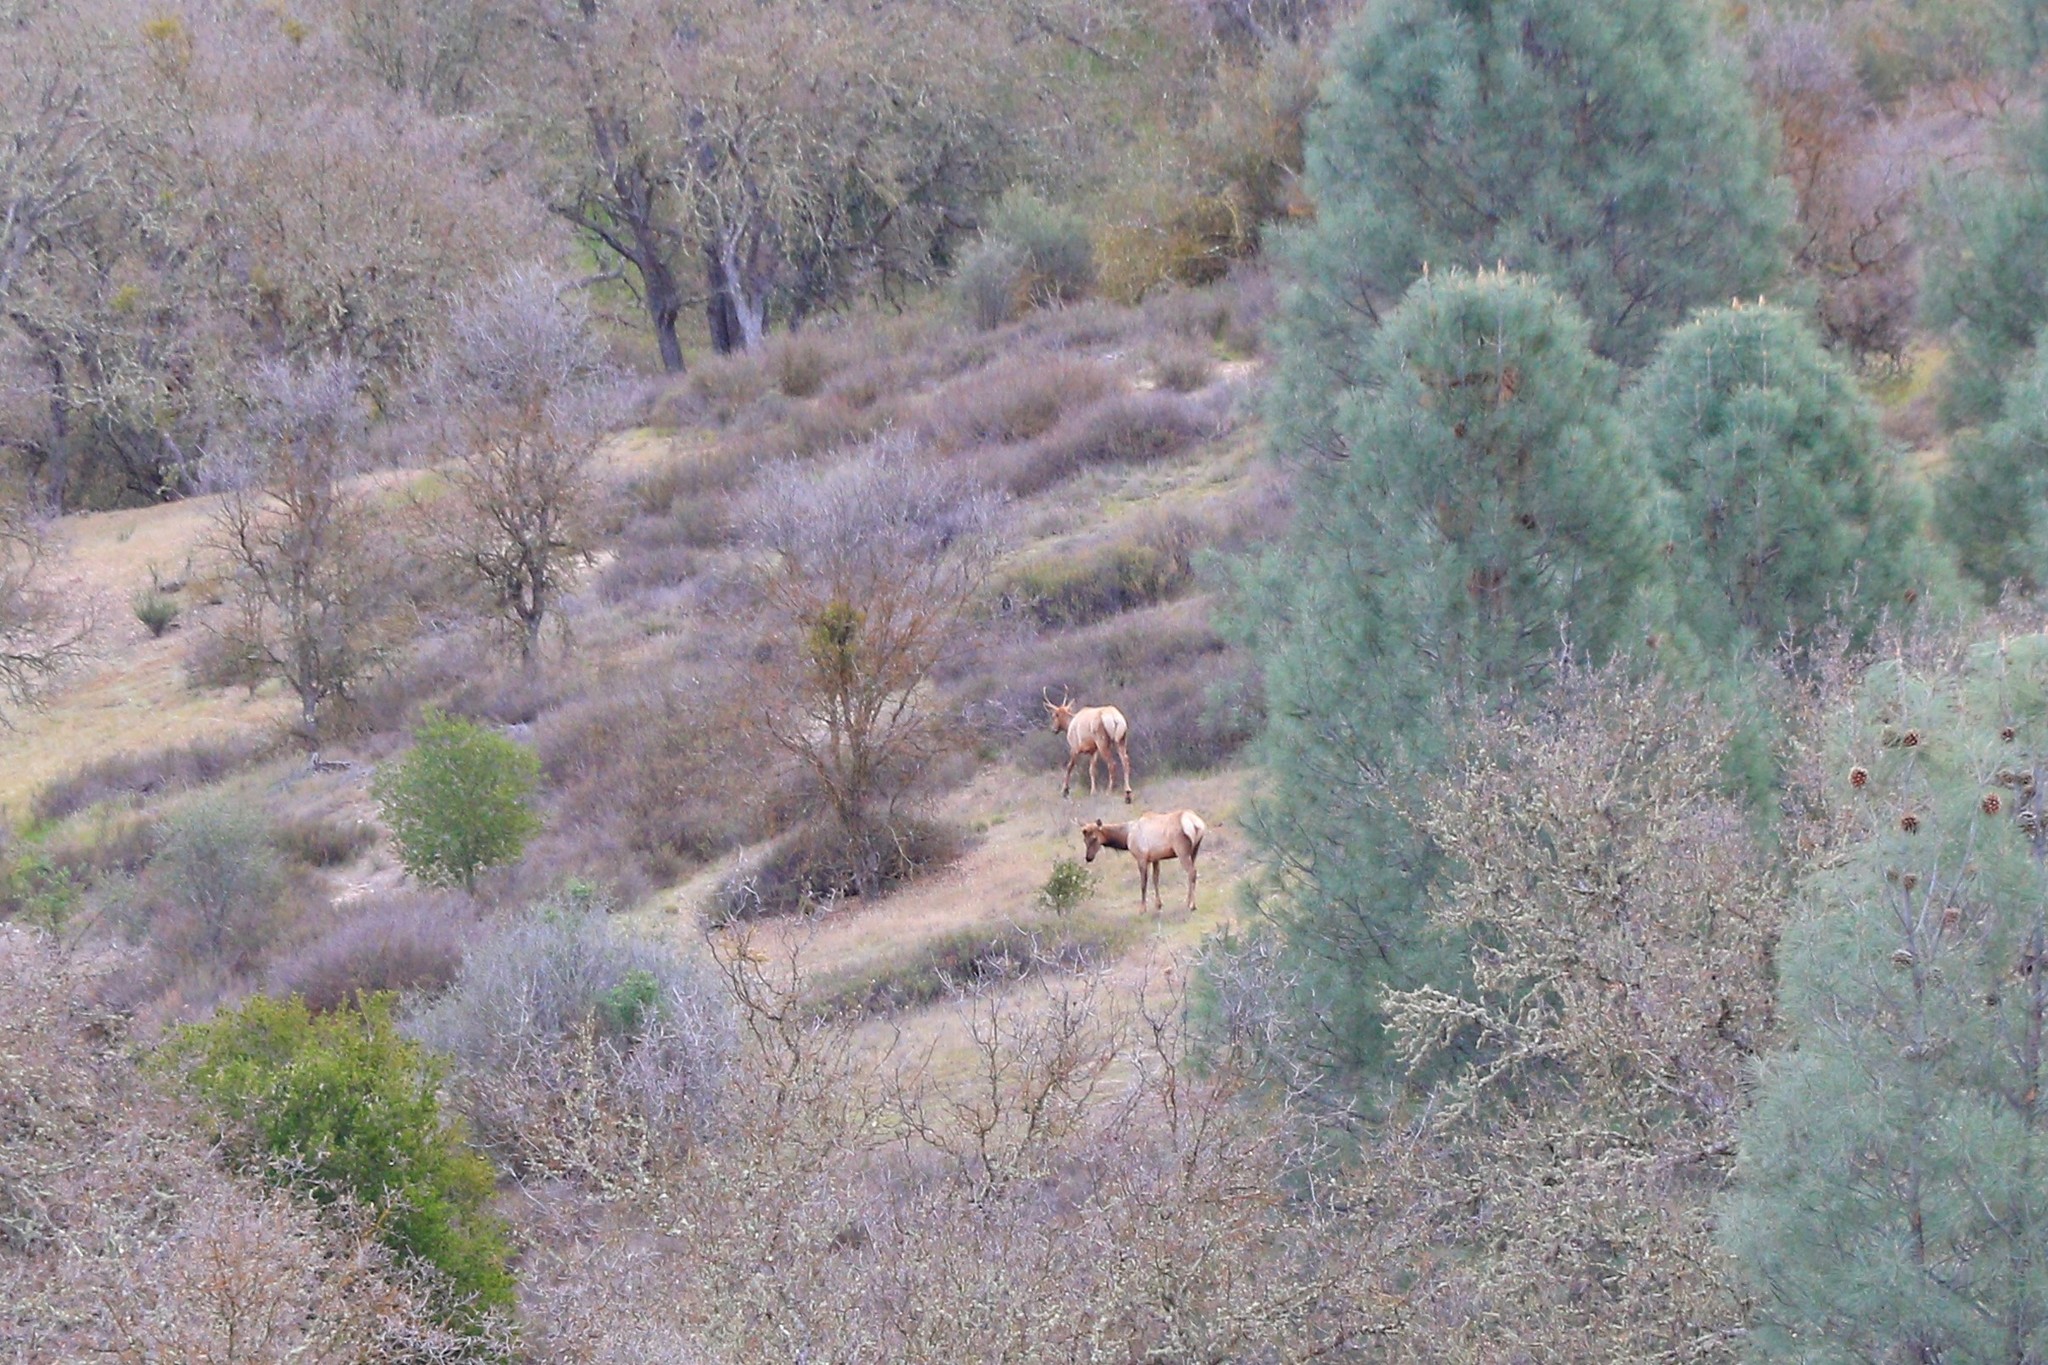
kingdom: Animalia
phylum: Chordata
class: Mammalia
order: Artiodactyla
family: Cervidae
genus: Cervus
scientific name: Cervus elaphus
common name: Red deer
